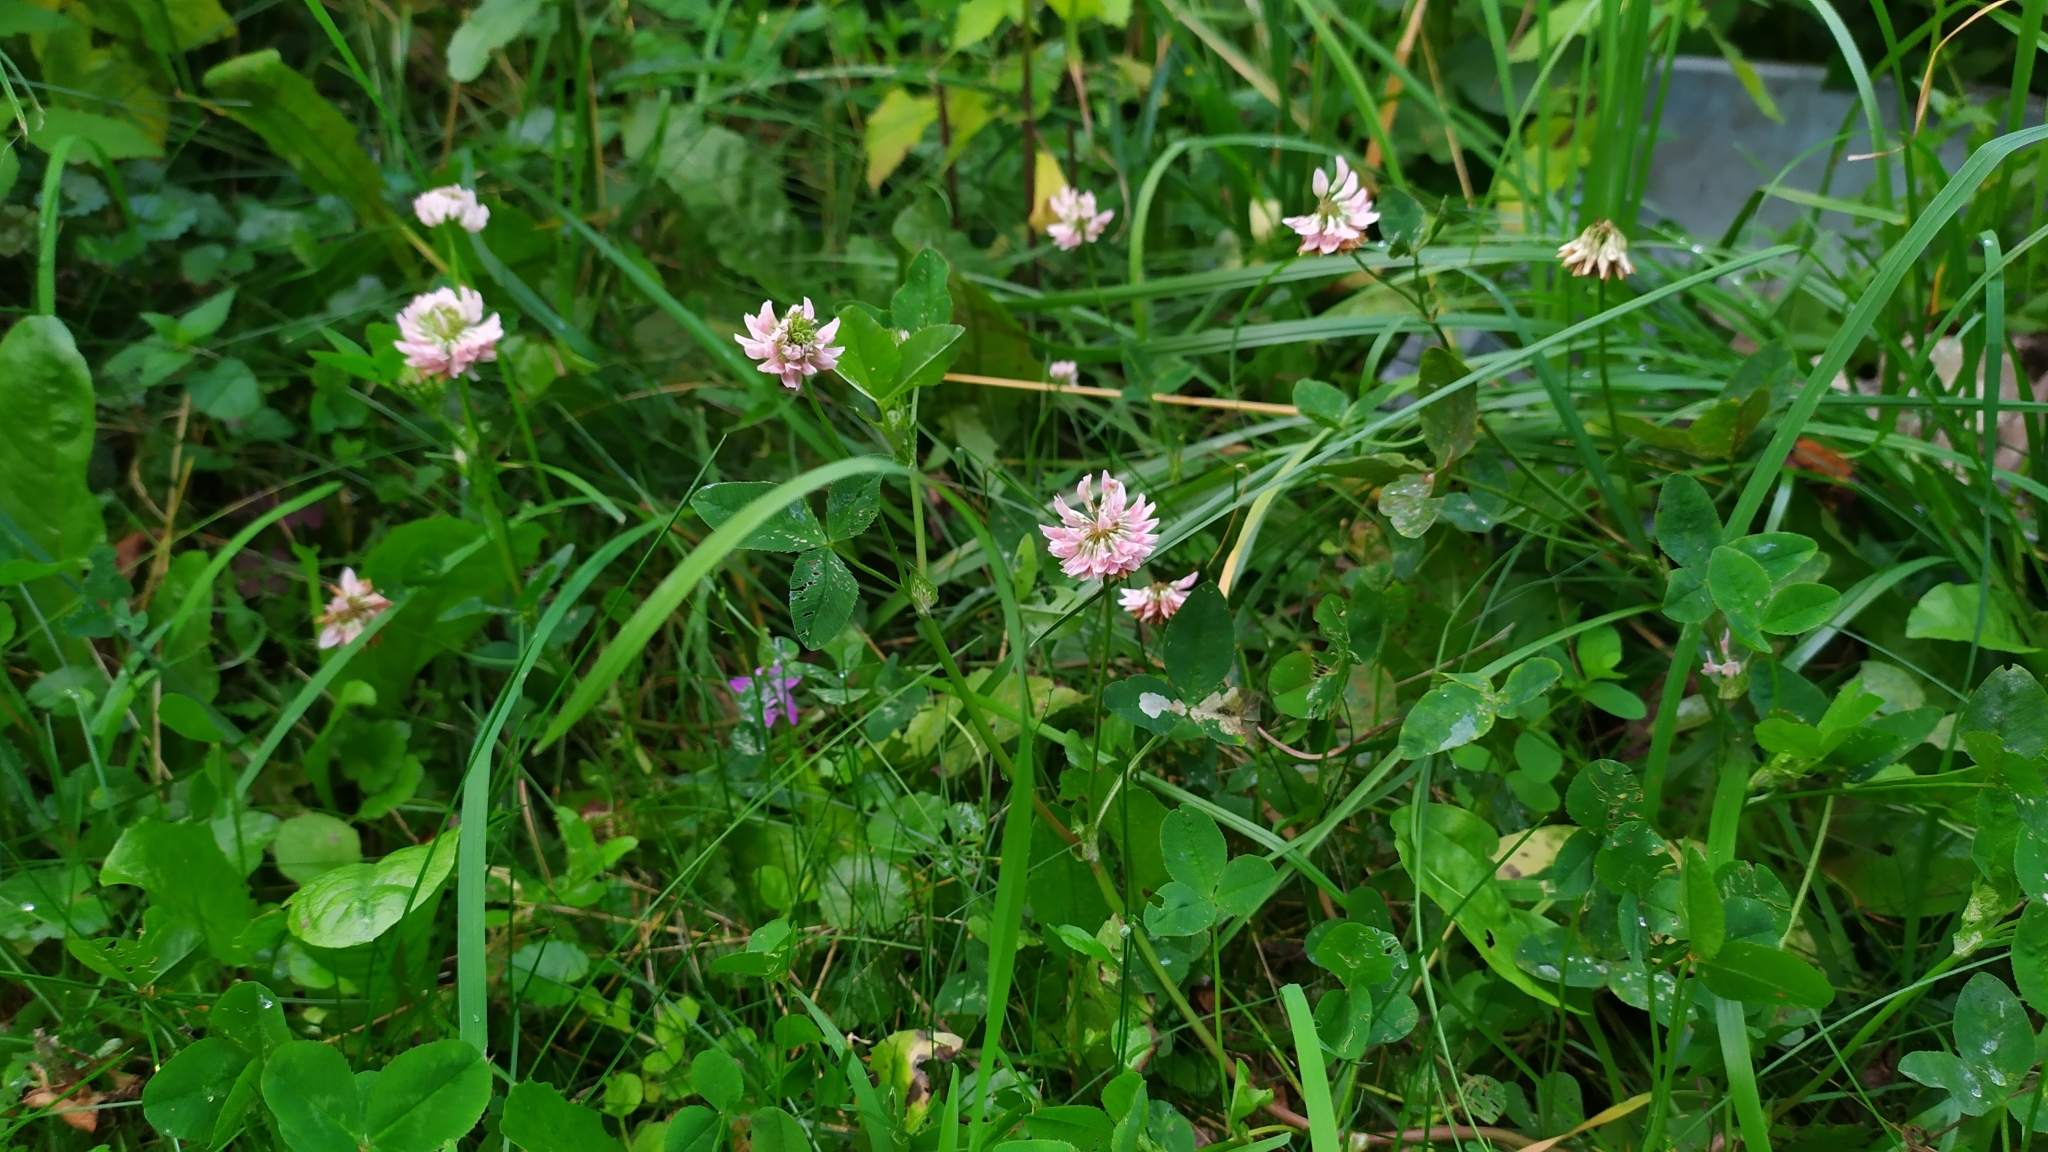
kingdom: Plantae
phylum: Tracheophyta
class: Magnoliopsida
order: Fabales
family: Fabaceae
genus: Trifolium
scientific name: Trifolium hybridum
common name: Alsike clover
